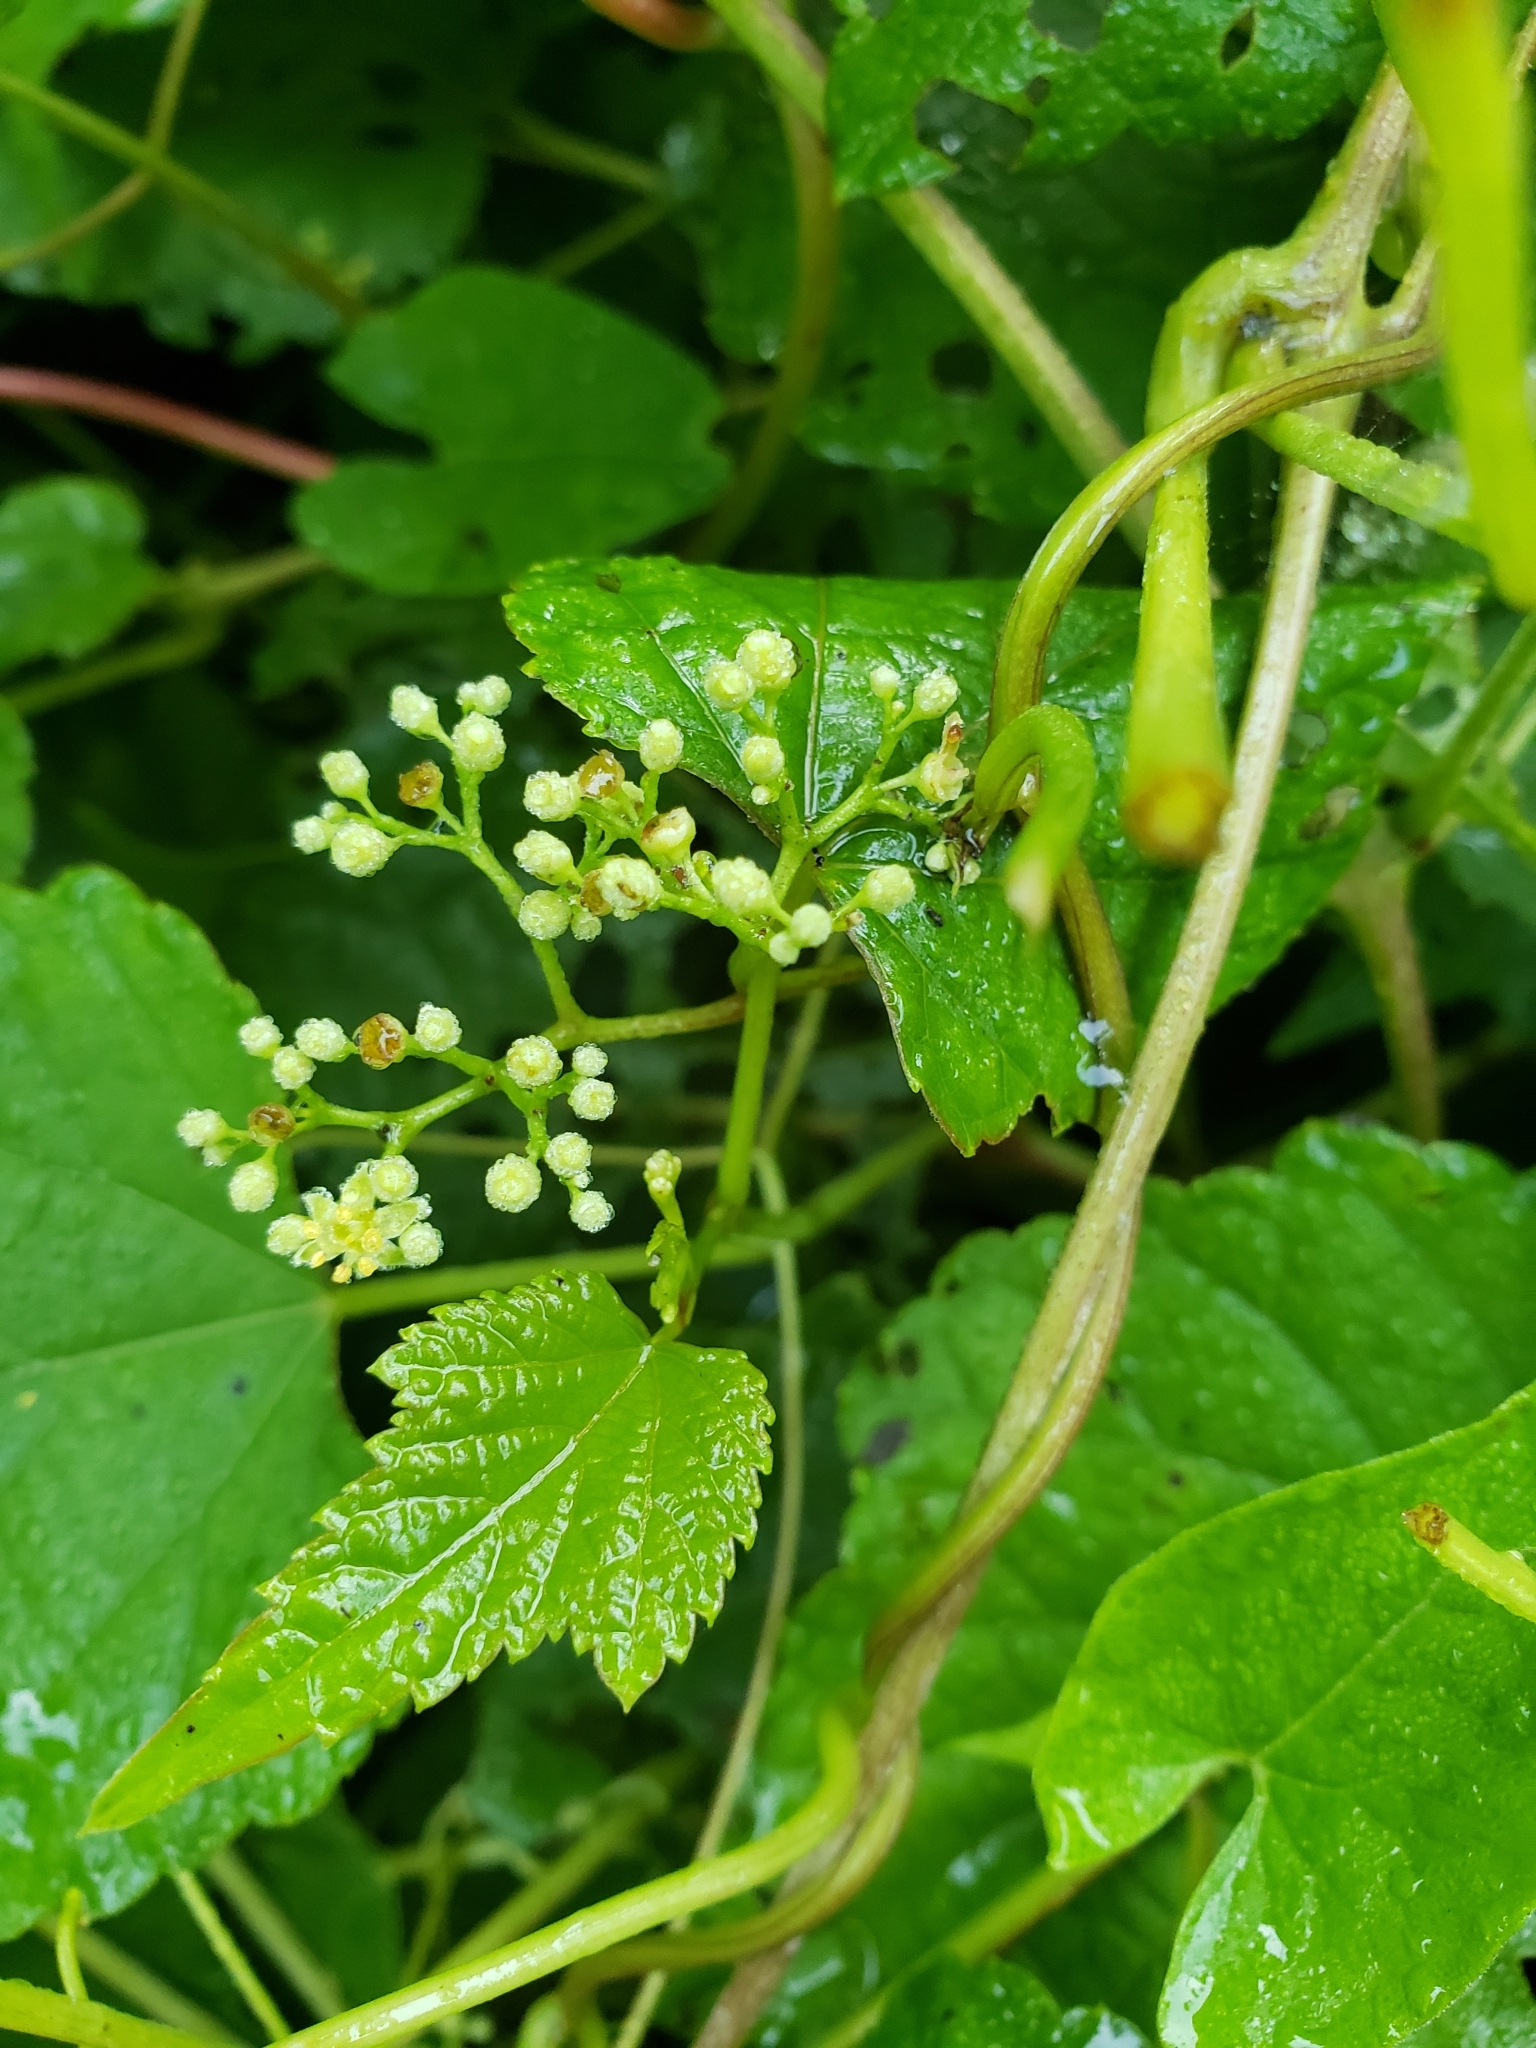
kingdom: Plantae
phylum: Tracheophyta
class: Magnoliopsida
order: Vitales
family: Vitaceae
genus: Ampelopsis
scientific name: Ampelopsis glandulosa
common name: Amur peppervine
